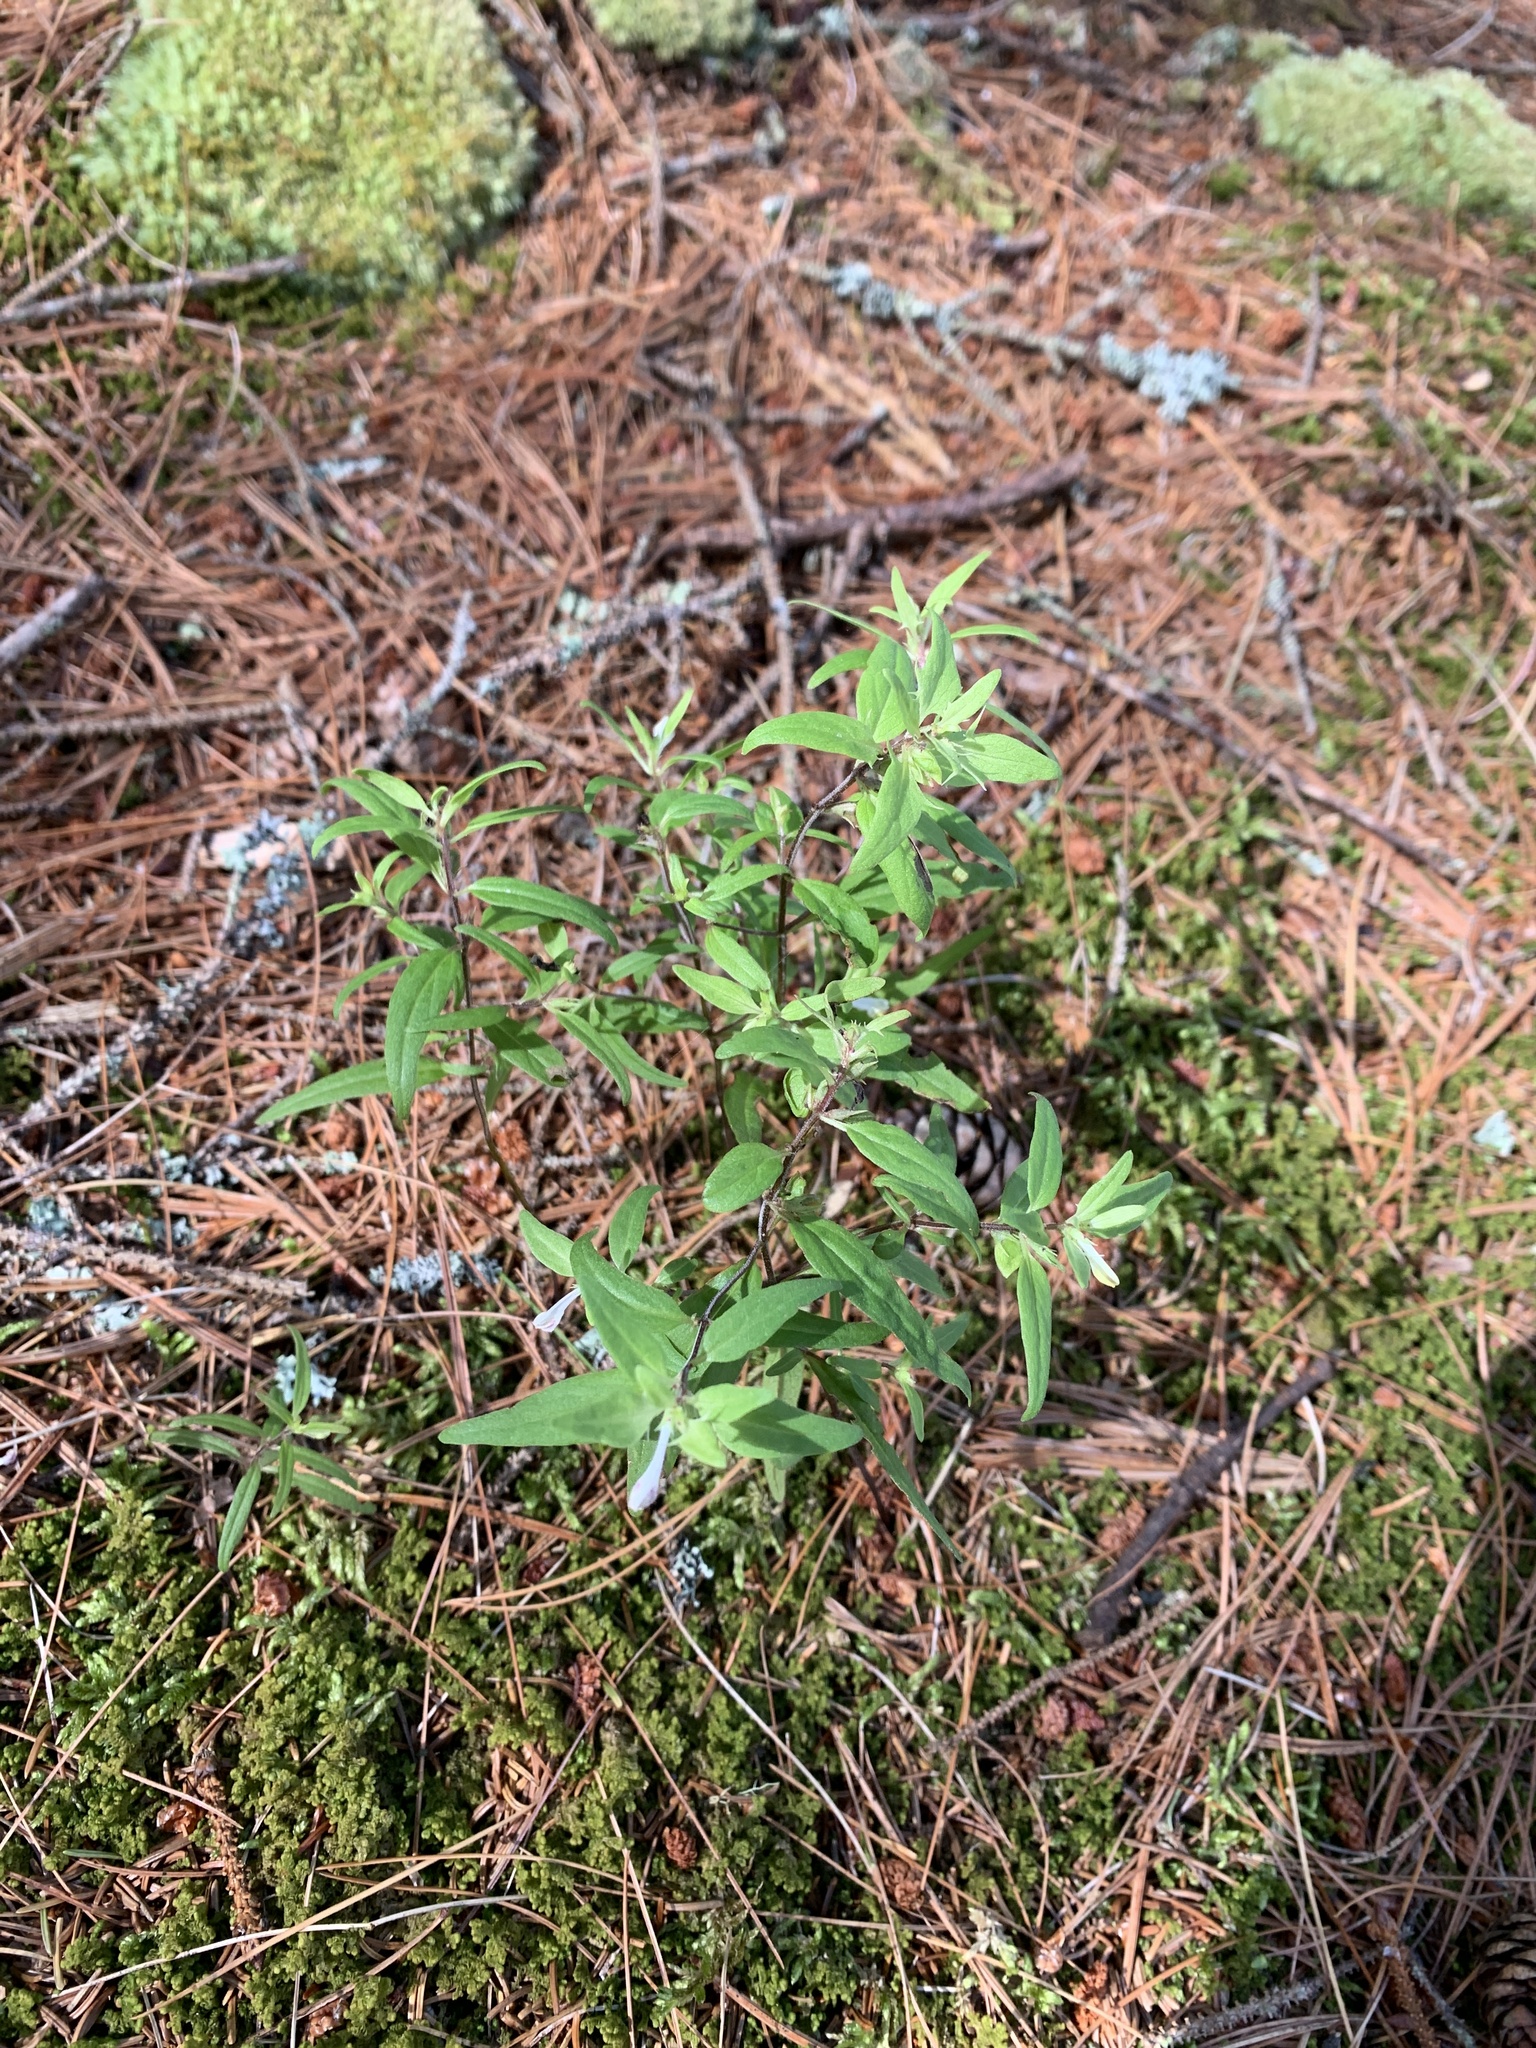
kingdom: Plantae
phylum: Tracheophyta
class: Magnoliopsida
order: Lamiales
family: Orobanchaceae
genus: Melampyrum
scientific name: Melampyrum lineare
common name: American cow-wheat
